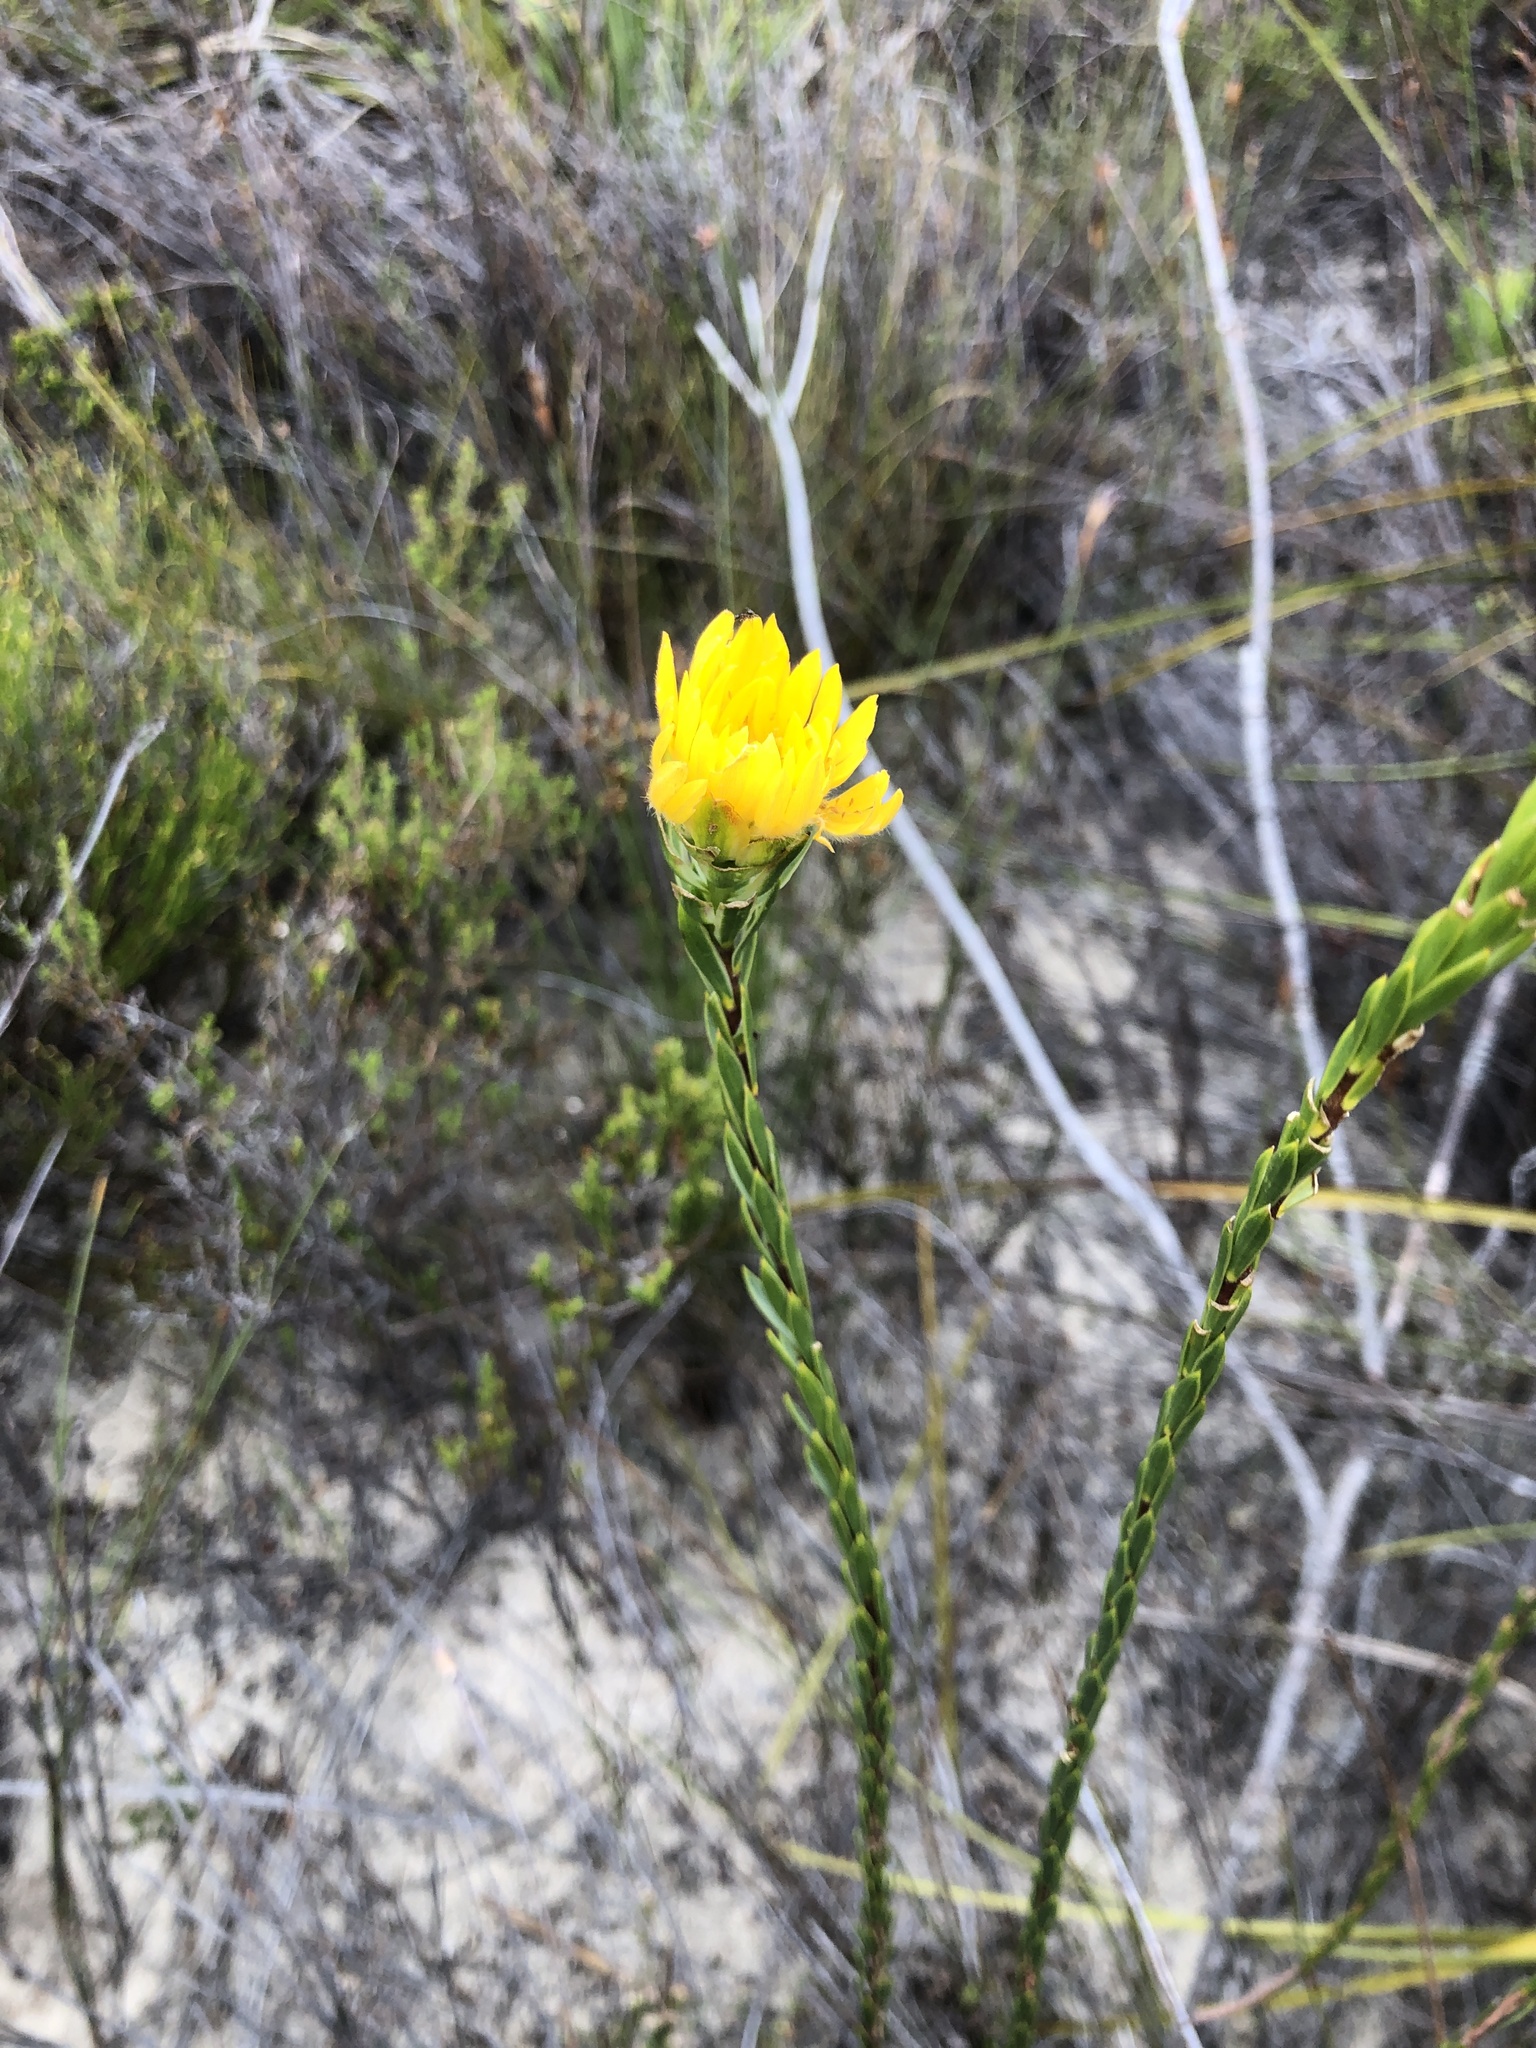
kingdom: Plantae
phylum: Tracheophyta
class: Magnoliopsida
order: Malvales
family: Thymelaeaceae
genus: Lachnaea
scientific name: Lachnaea aurea
